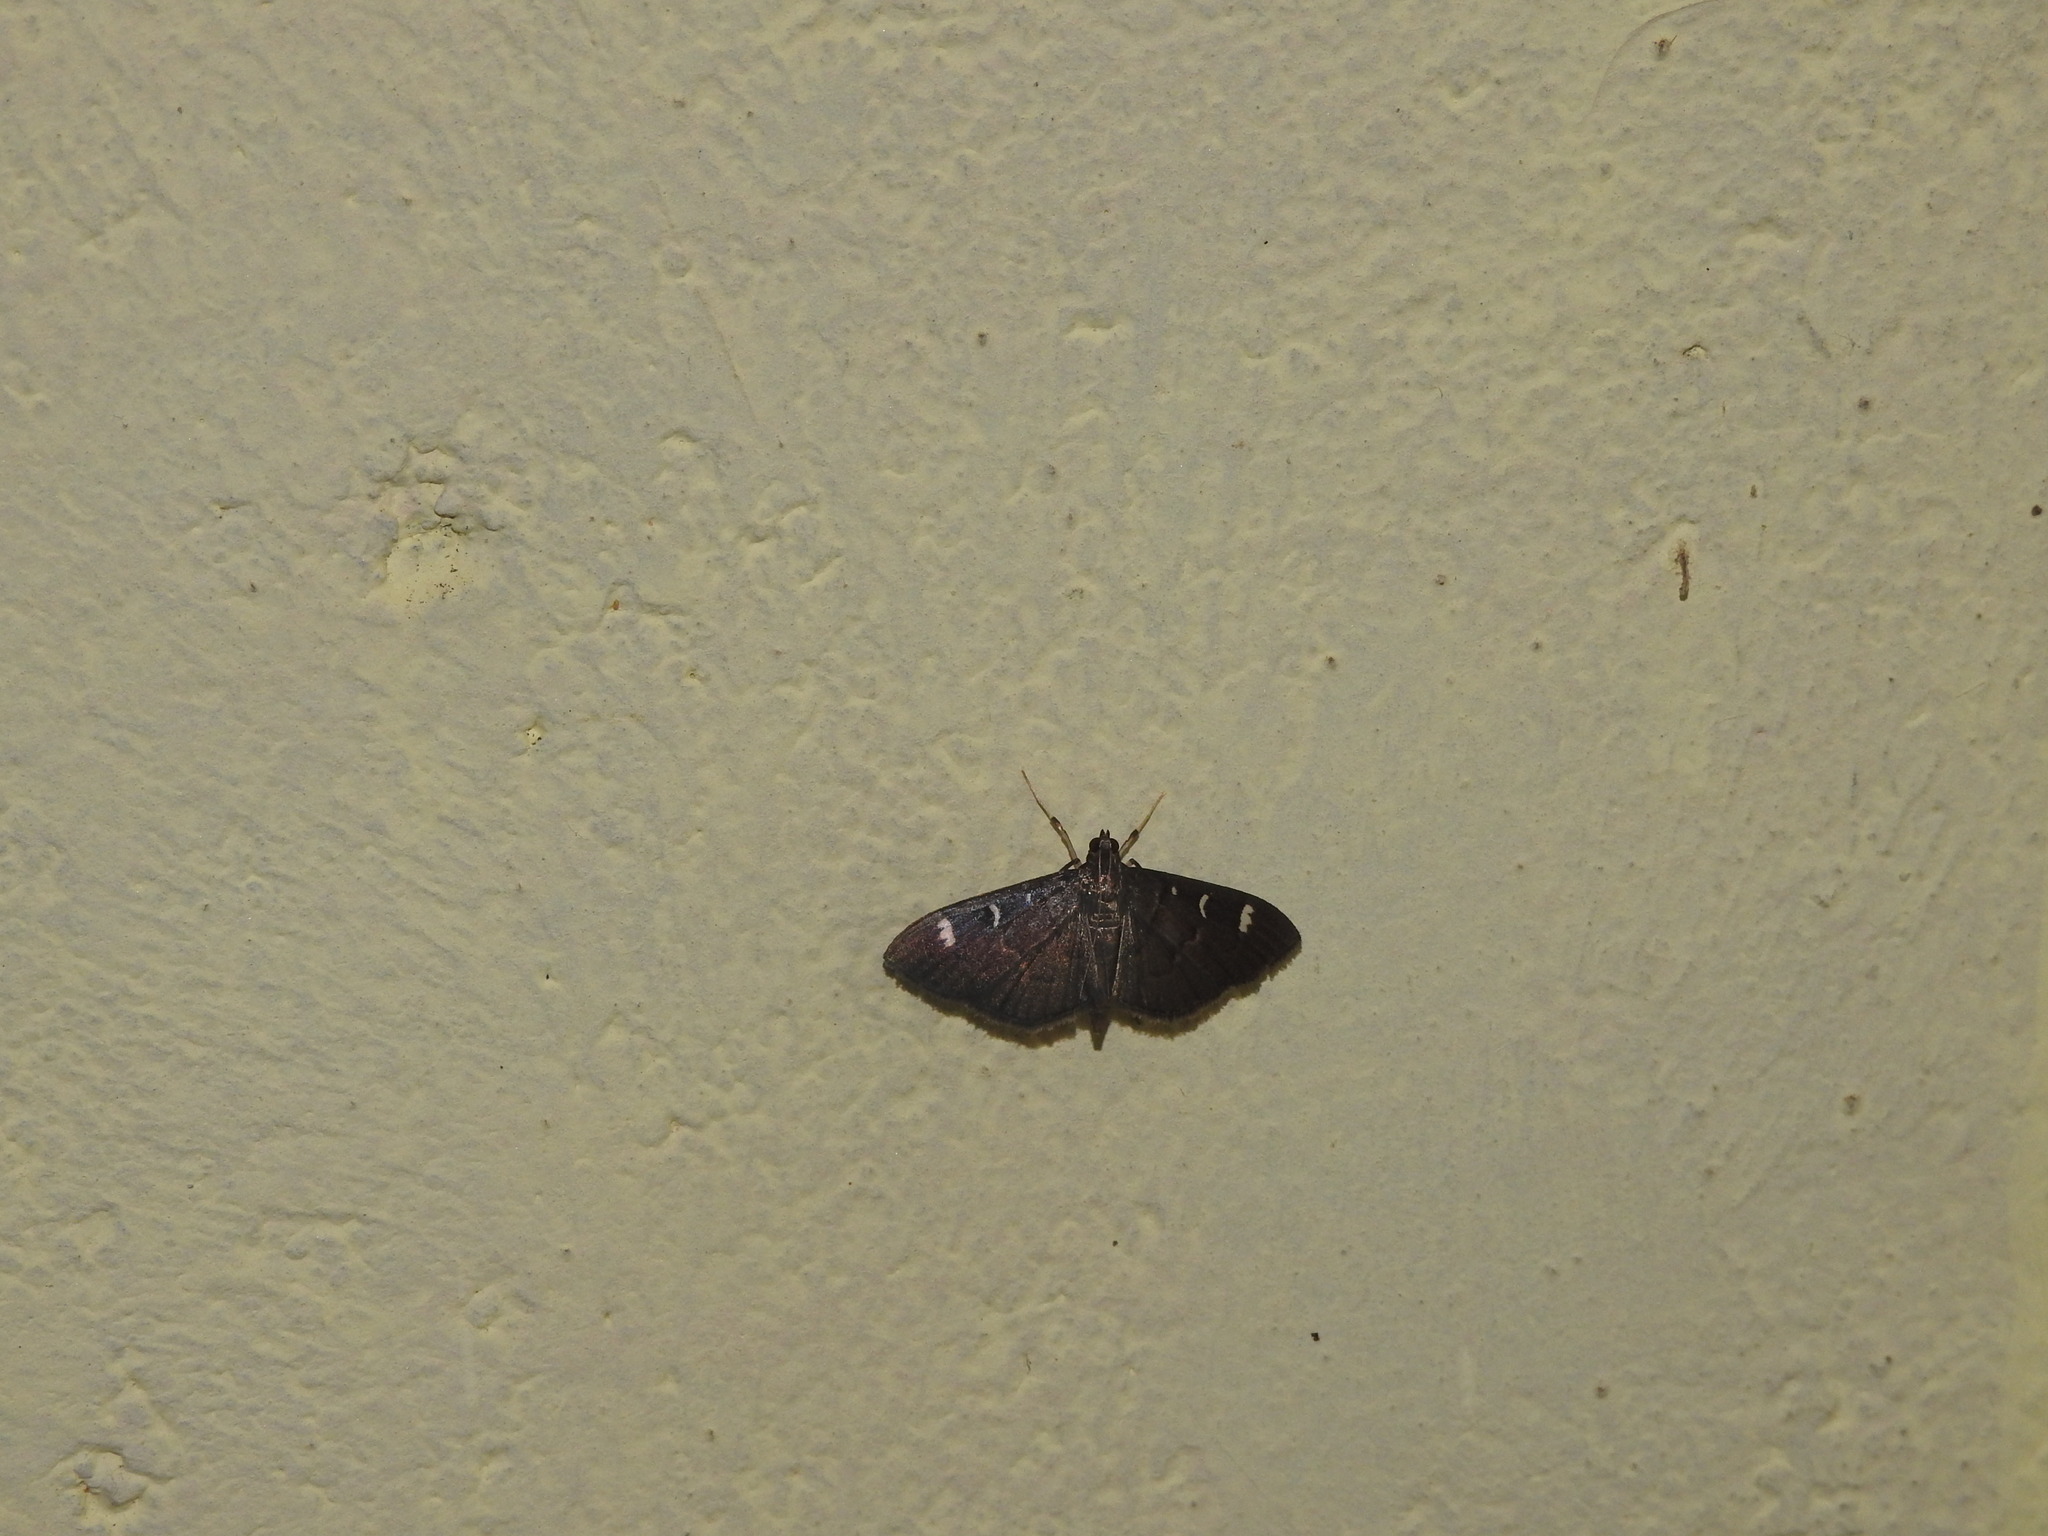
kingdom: Animalia
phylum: Arthropoda
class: Insecta
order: Lepidoptera
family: Crambidae
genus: Syllepte
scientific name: Syllepte adductalis
